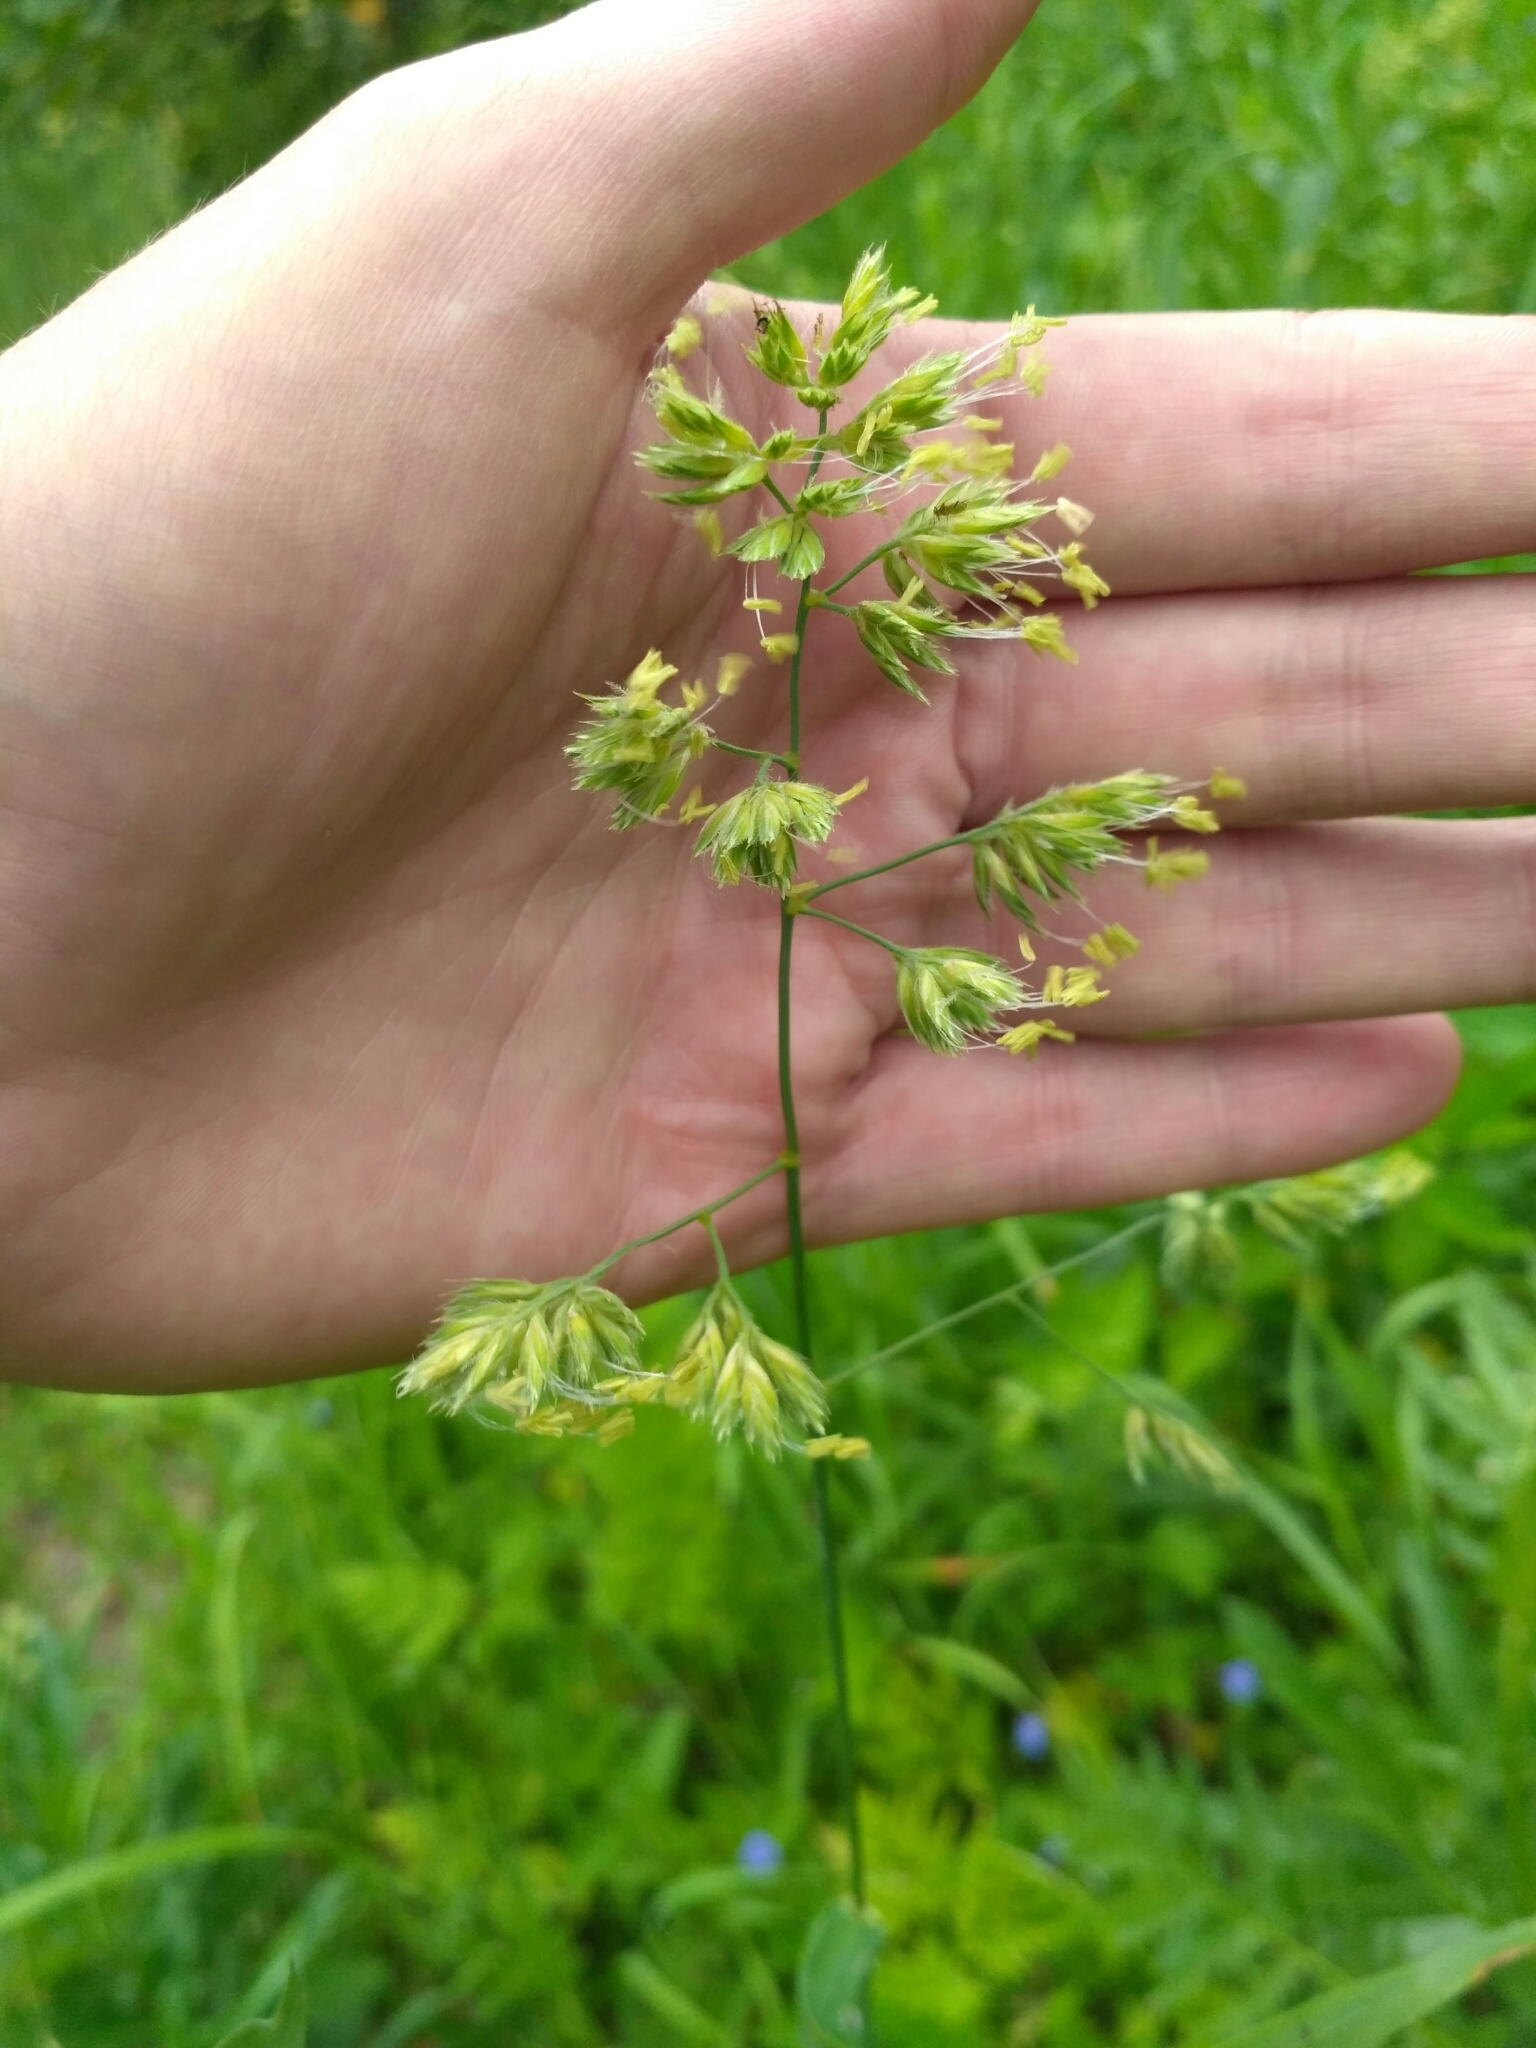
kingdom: Plantae
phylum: Tracheophyta
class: Liliopsida
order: Poales
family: Poaceae
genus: Dactylis
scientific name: Dactylis glomerata
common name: Orchardgrass
